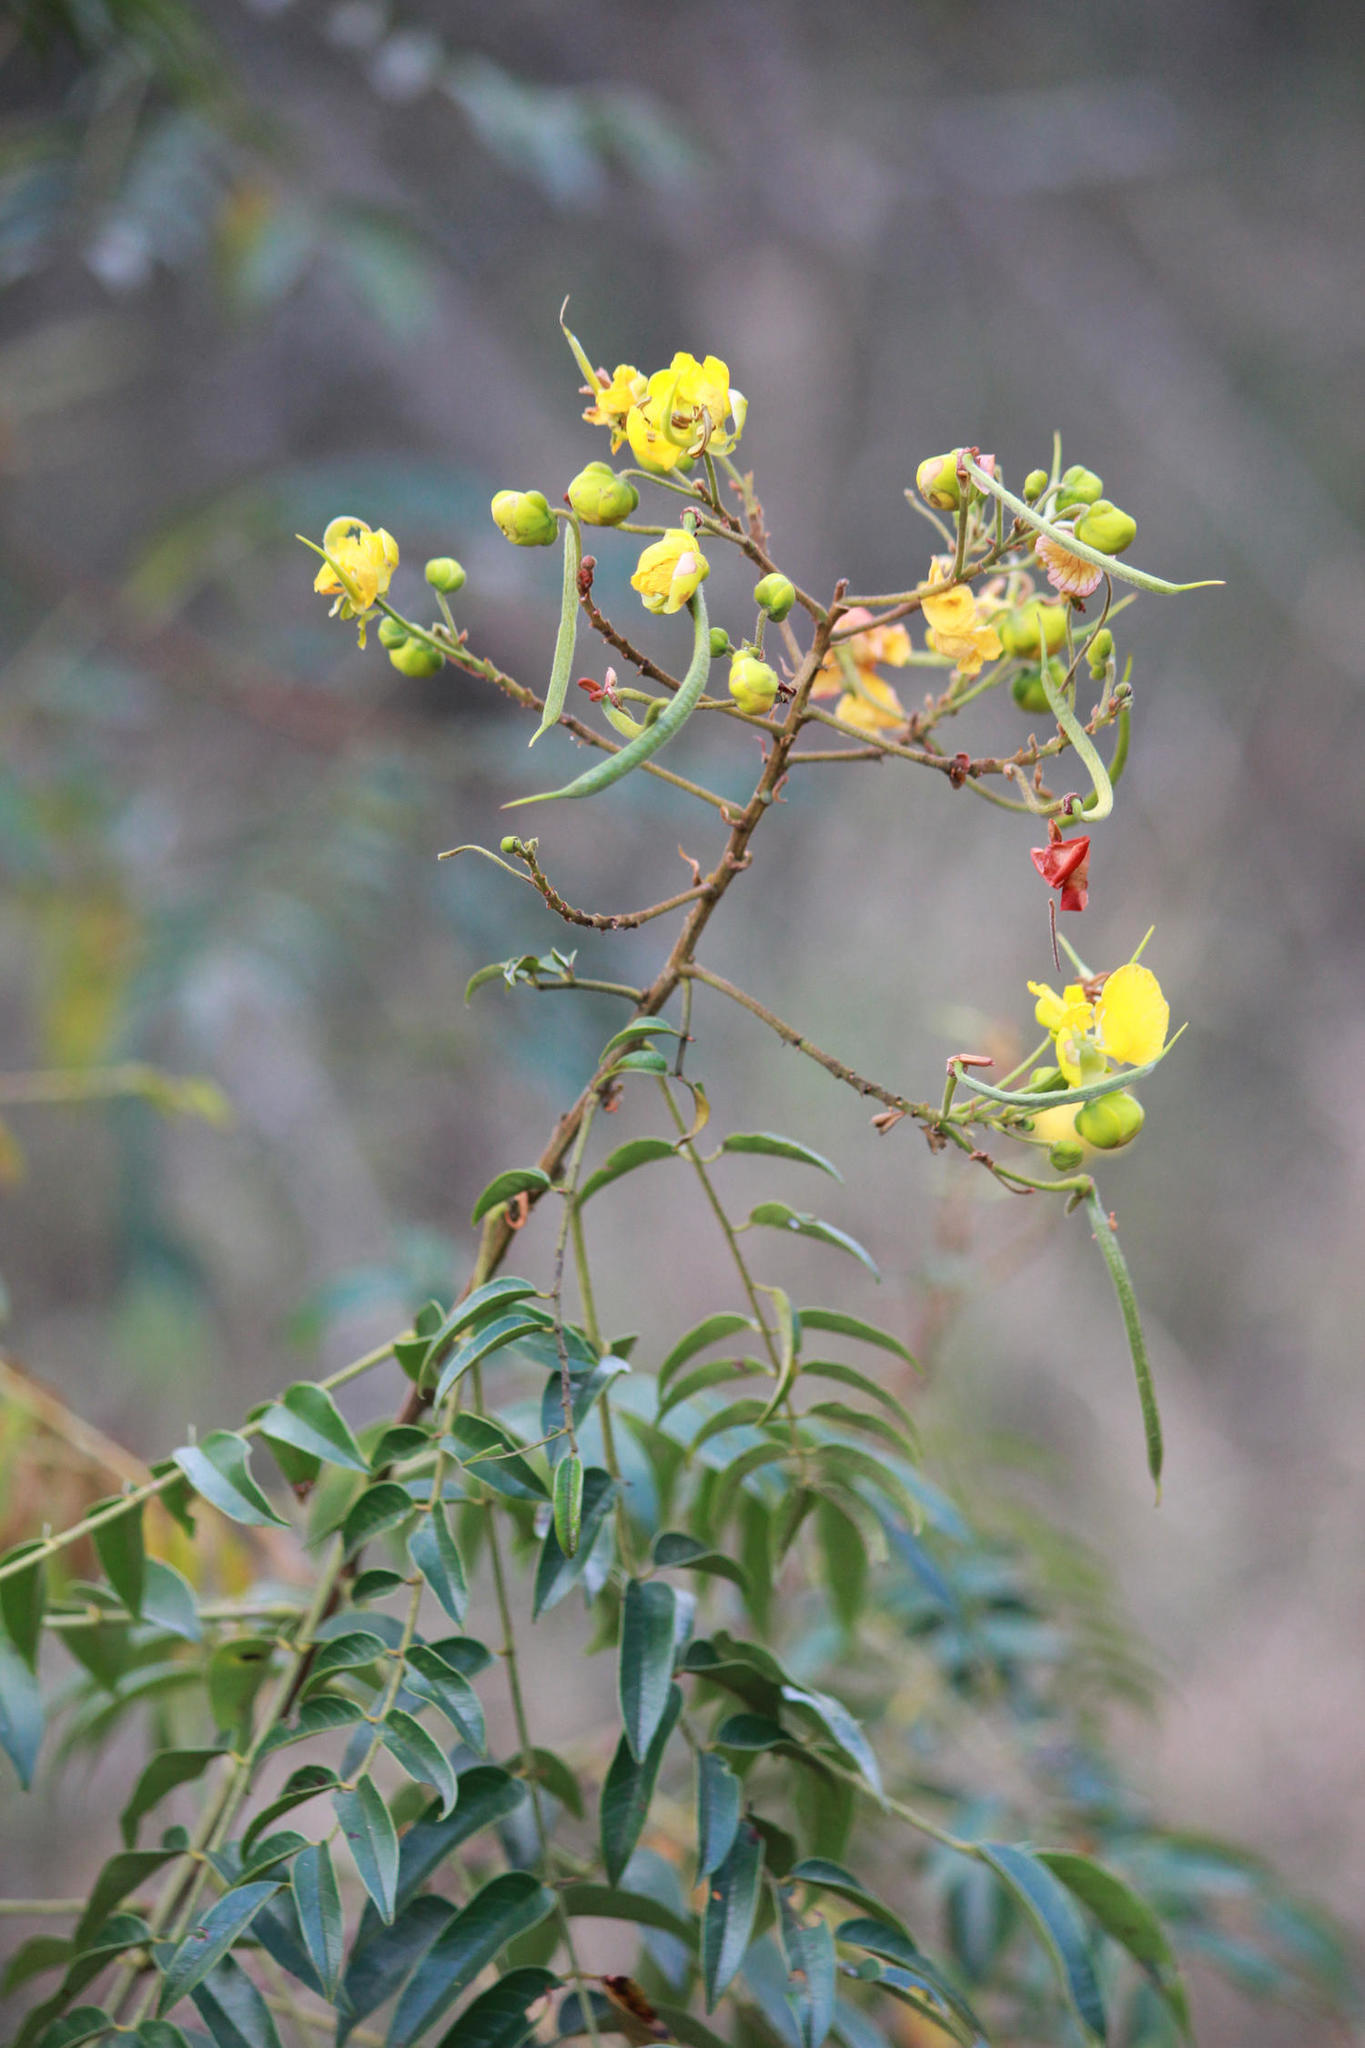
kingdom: Plantae
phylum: Tracheophyta
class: Magnoliopsida
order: Fabales
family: Fabaceae
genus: Senna
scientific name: Senna petersiana
